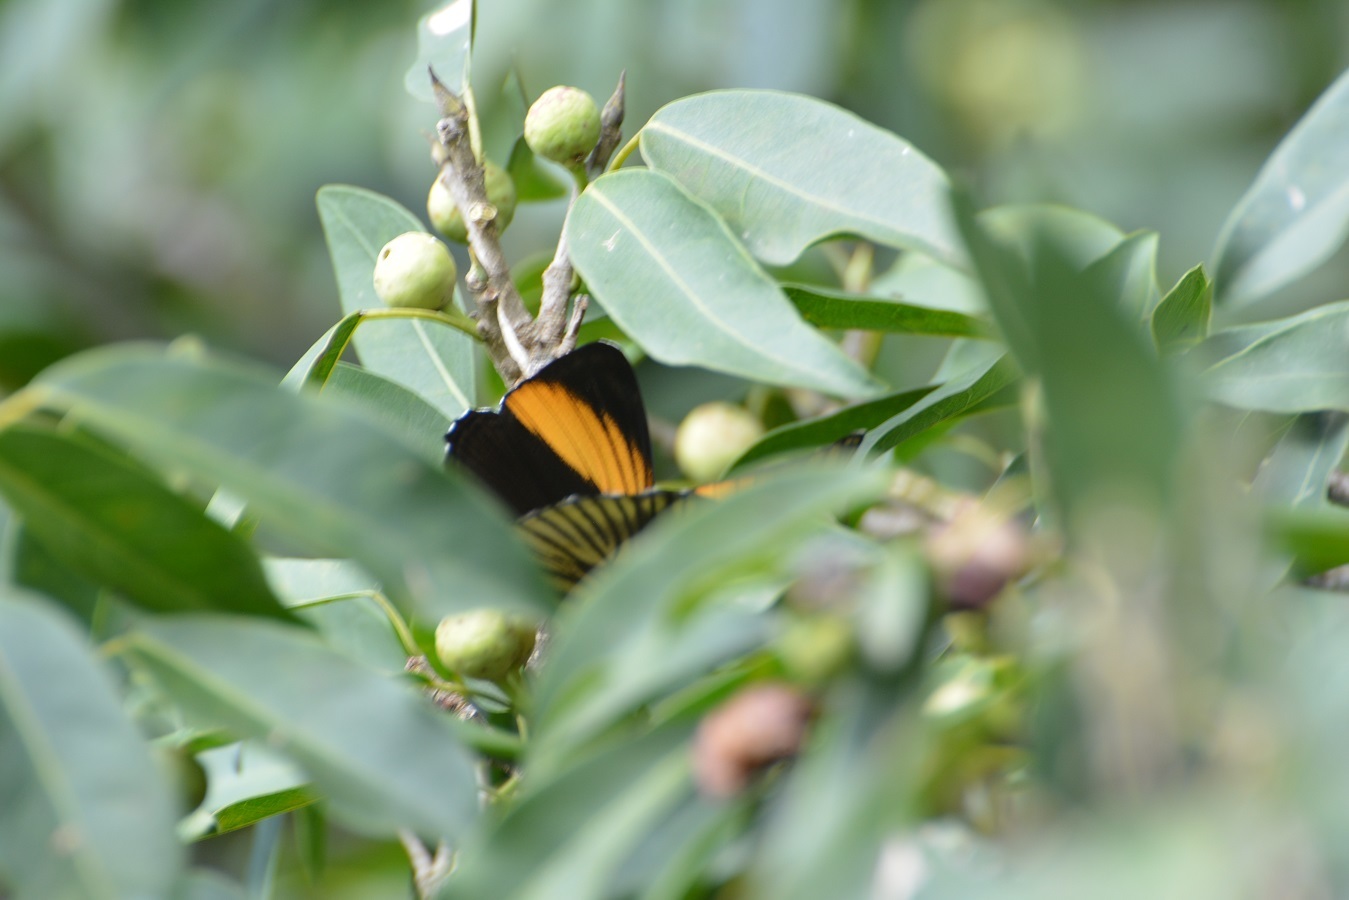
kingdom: Animalia
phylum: Arthropoda
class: Insecta
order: Lepidoptera
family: Nymphalidae
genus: Limenitis
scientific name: Limenitis melanthe
